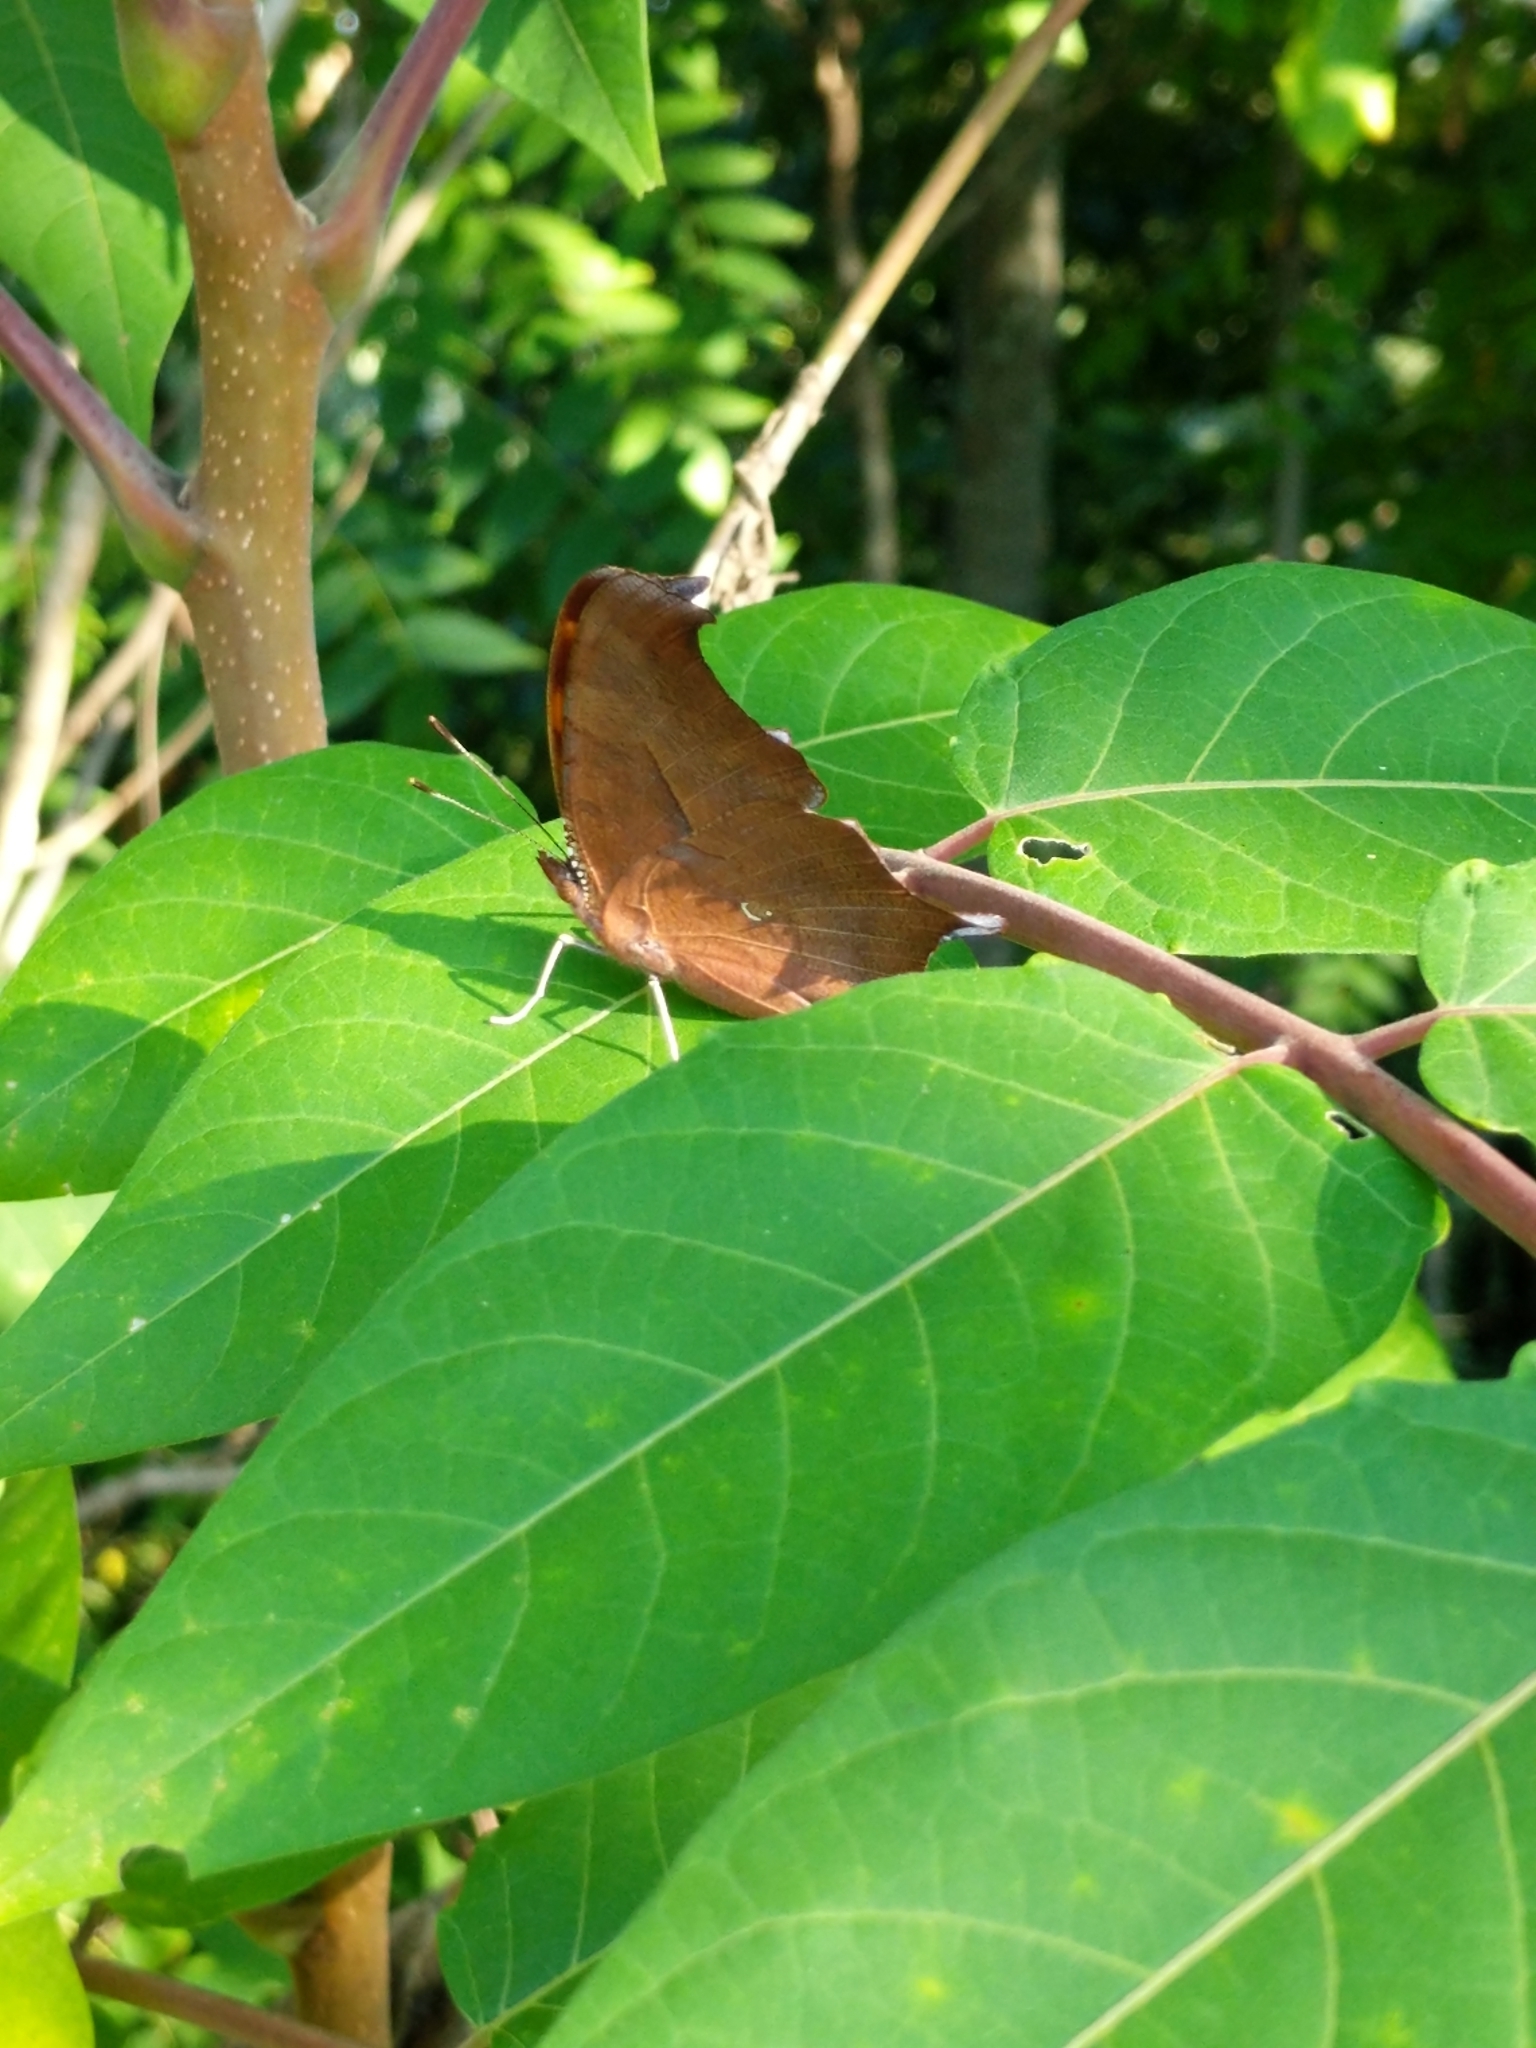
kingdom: Animalia
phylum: Arthropoda
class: Insecta
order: Lepidoptera
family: Nymphalidae
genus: Polygonia
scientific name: Polygonia interrogationis
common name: Question mark
